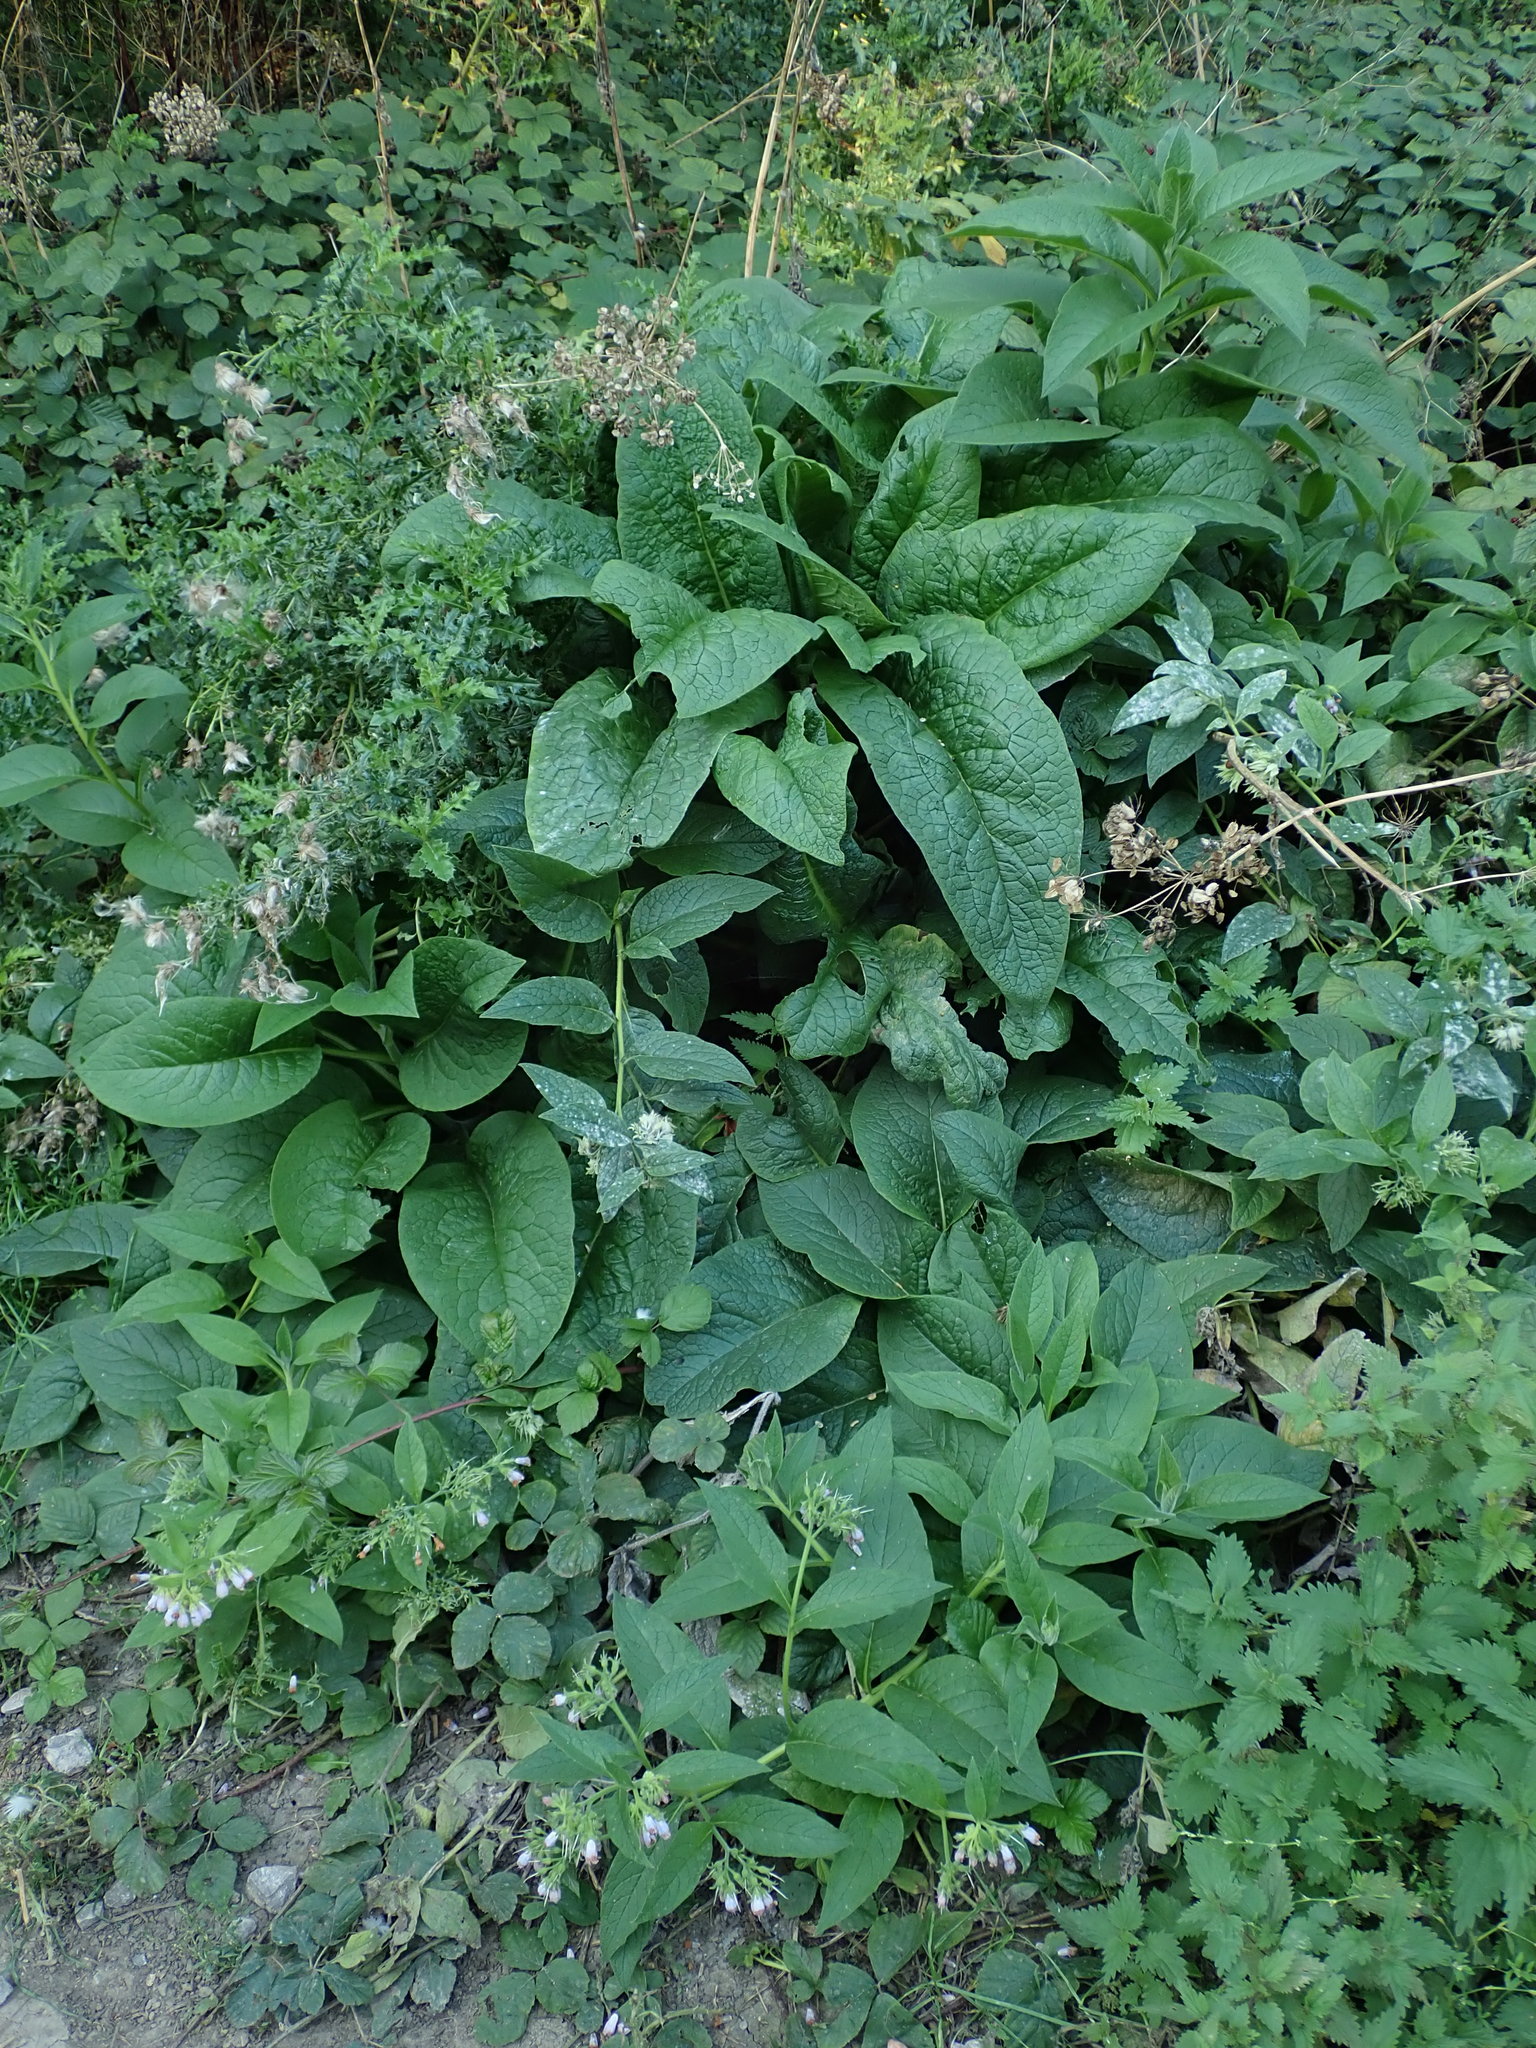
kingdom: Plantae
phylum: Tracheophyta
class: Magnoliopsida
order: Boraginales
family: Boraginaceae
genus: Symphytum
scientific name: Symphytum uplandicum
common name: Russian comfrey
